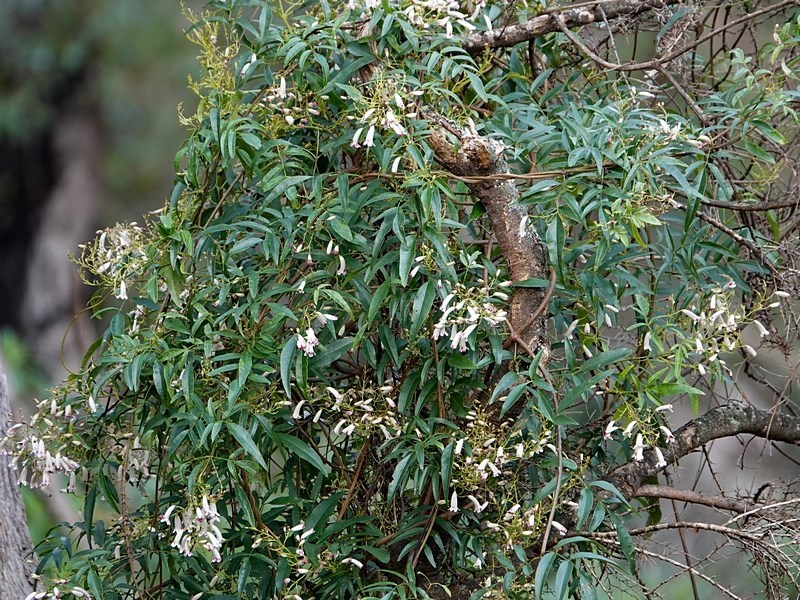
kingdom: Plantae
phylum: Tracheophyta
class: Magnoliopsida
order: Lamiales
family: Bignoniaceae
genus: Pandorea
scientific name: Pandorea pandorana
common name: Wonga-wonga-vine
